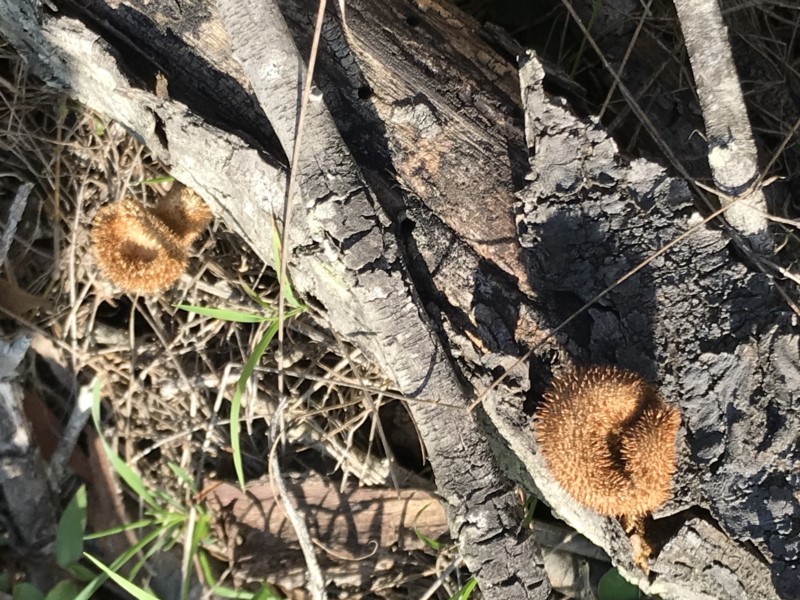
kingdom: Fungi
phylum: Basidiomycota
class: Agaricomycetes
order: Polyporales
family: Polyporaceae
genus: Lentinus
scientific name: Lentinus fasciatus
